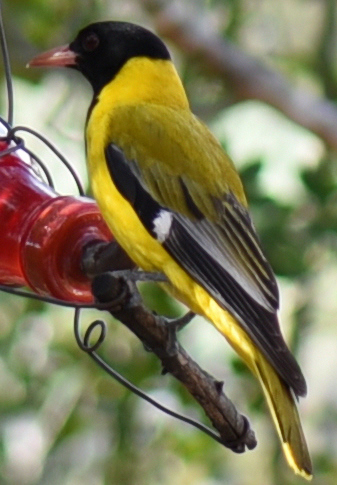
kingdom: Animalia
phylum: Chordata
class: Aves
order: Passeriformes
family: Oriolidae
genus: Oriolus
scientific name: Oriolus larvatus
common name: Black-headed oriole
